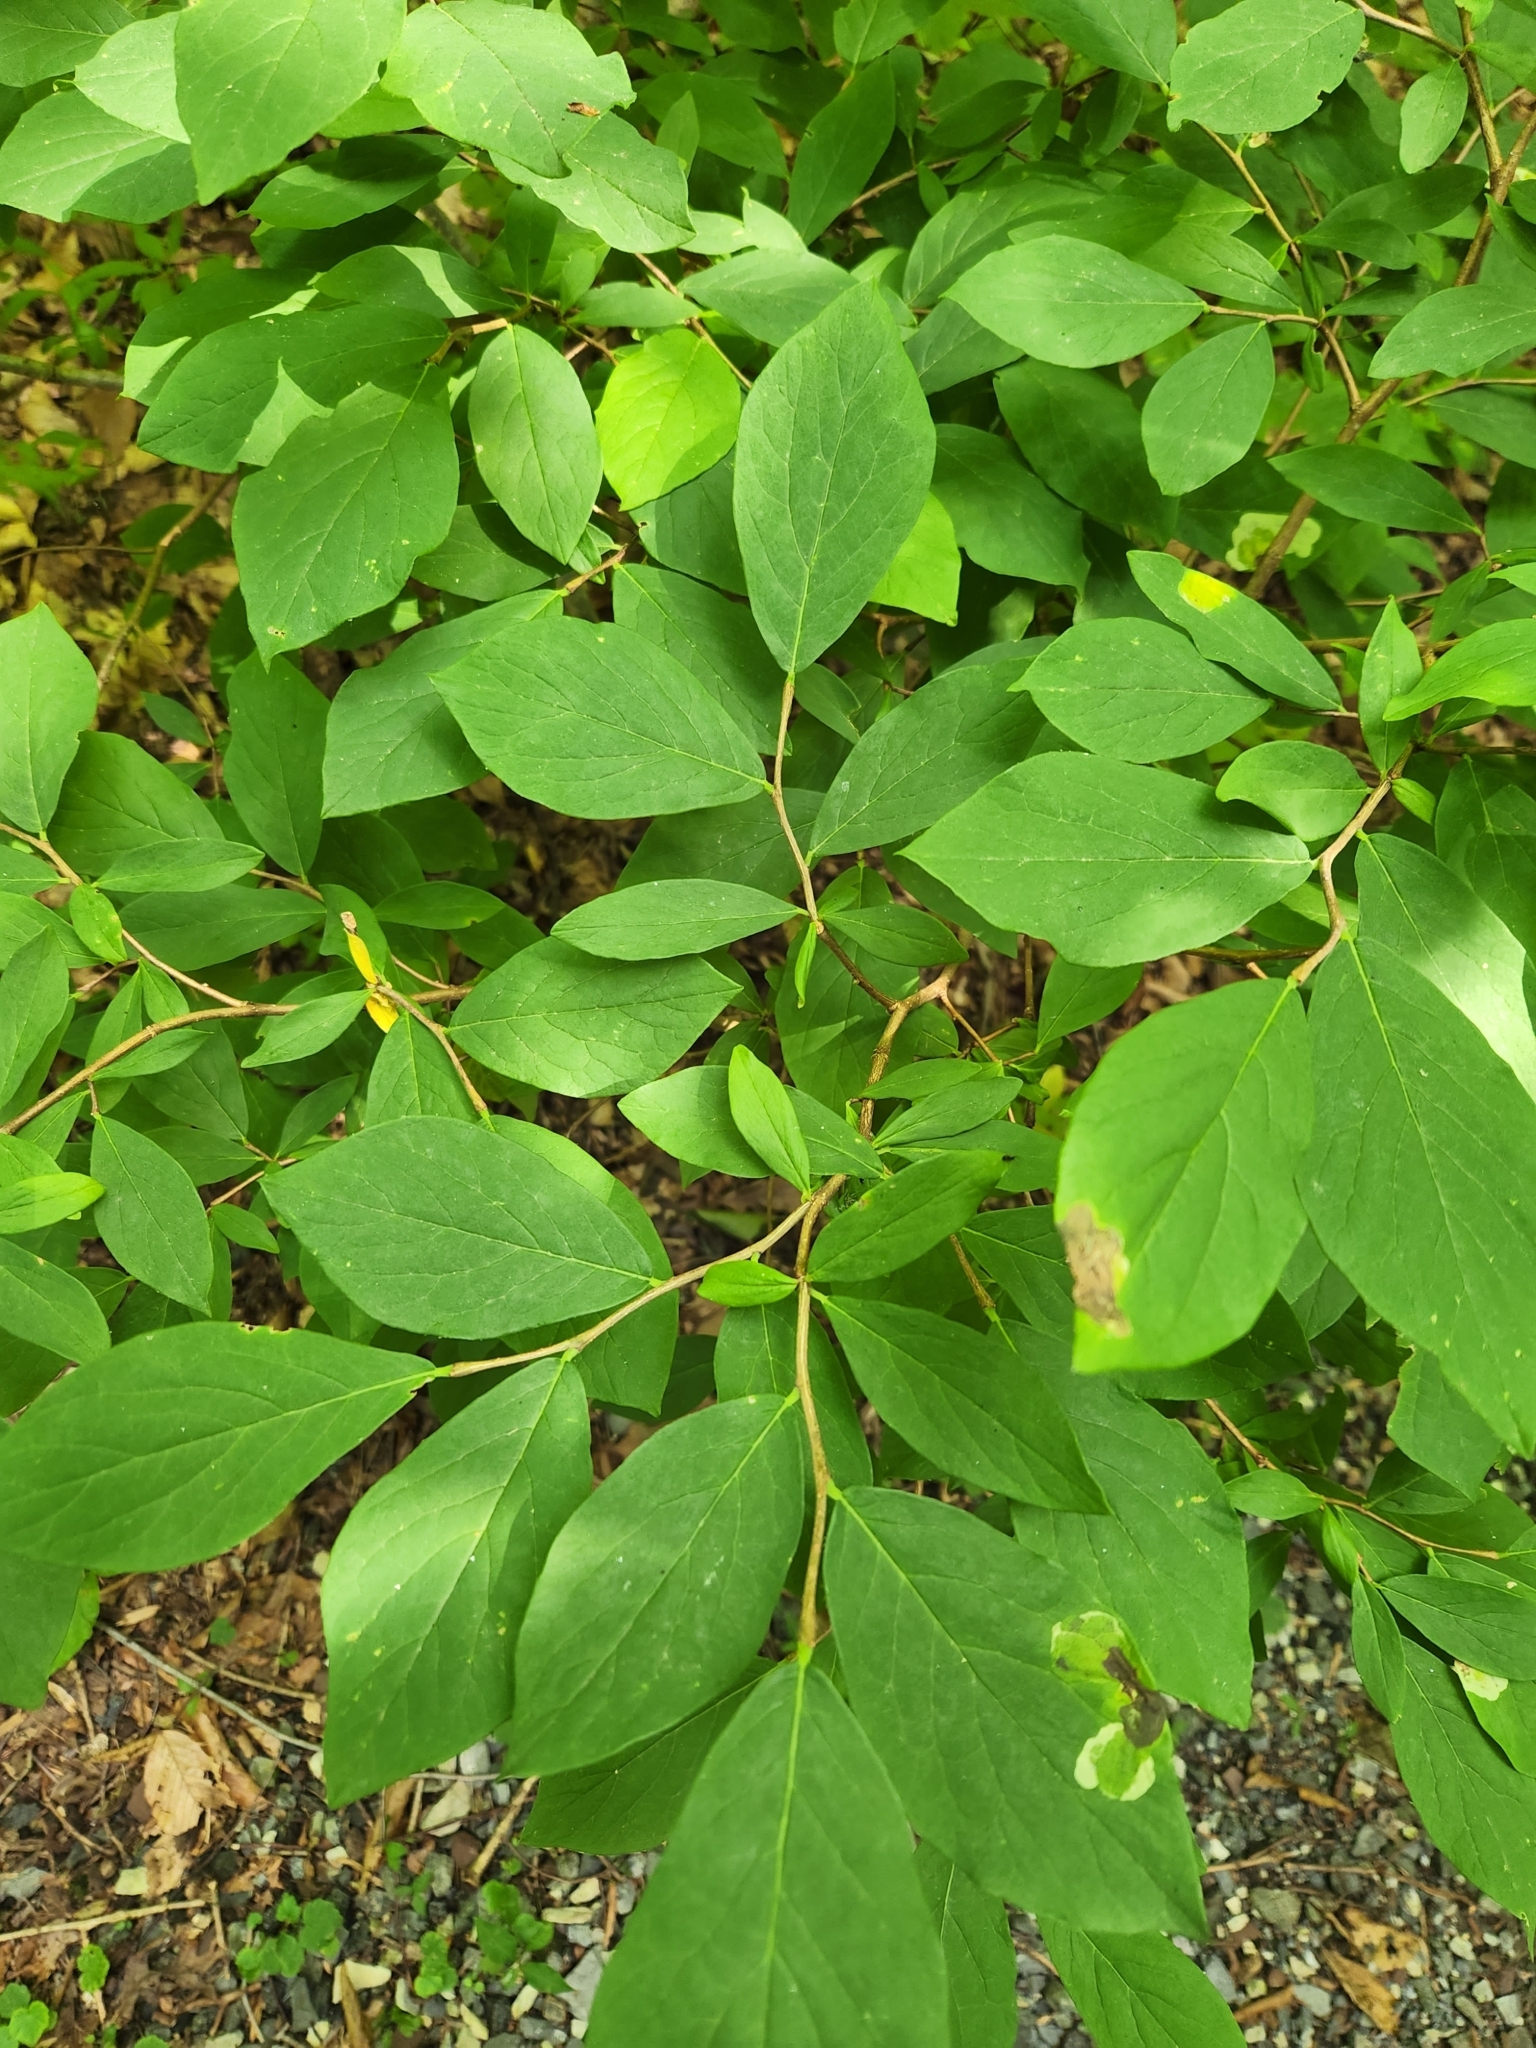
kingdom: Plantae
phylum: Tracheophyta
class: Magnoliopsida
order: Malvales
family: Thymelaeaceae
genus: Dirca
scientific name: Dirca palustris
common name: Leatherwood
